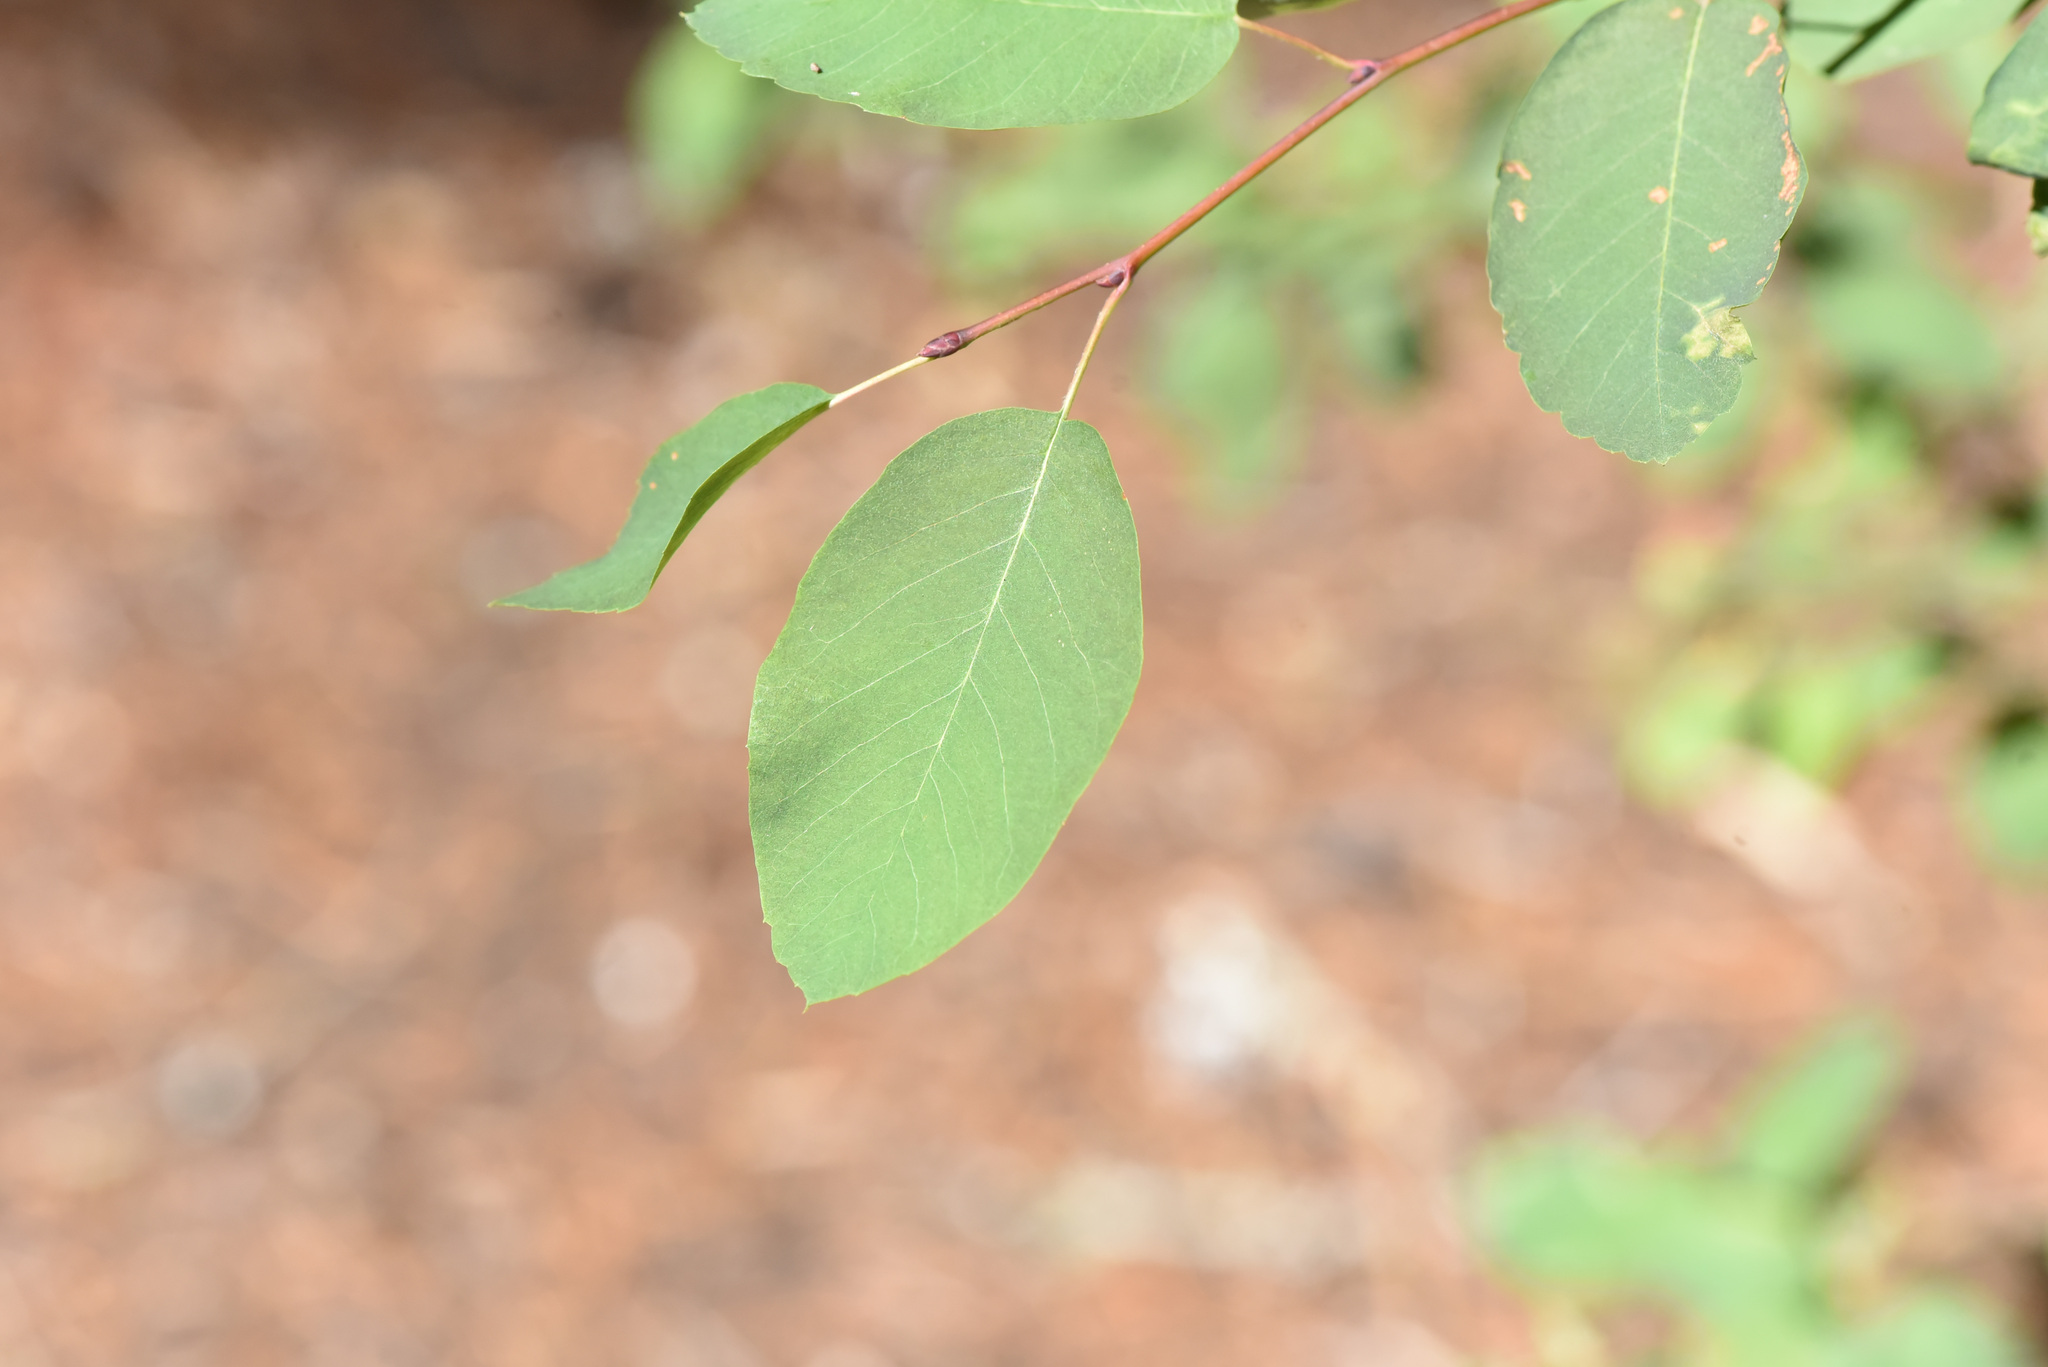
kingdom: Plantae
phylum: Tracheophyta
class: Magnoliopsida
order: Rosales
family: Rosaceae
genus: Amelanchier
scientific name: Amelanchier alnifolia
